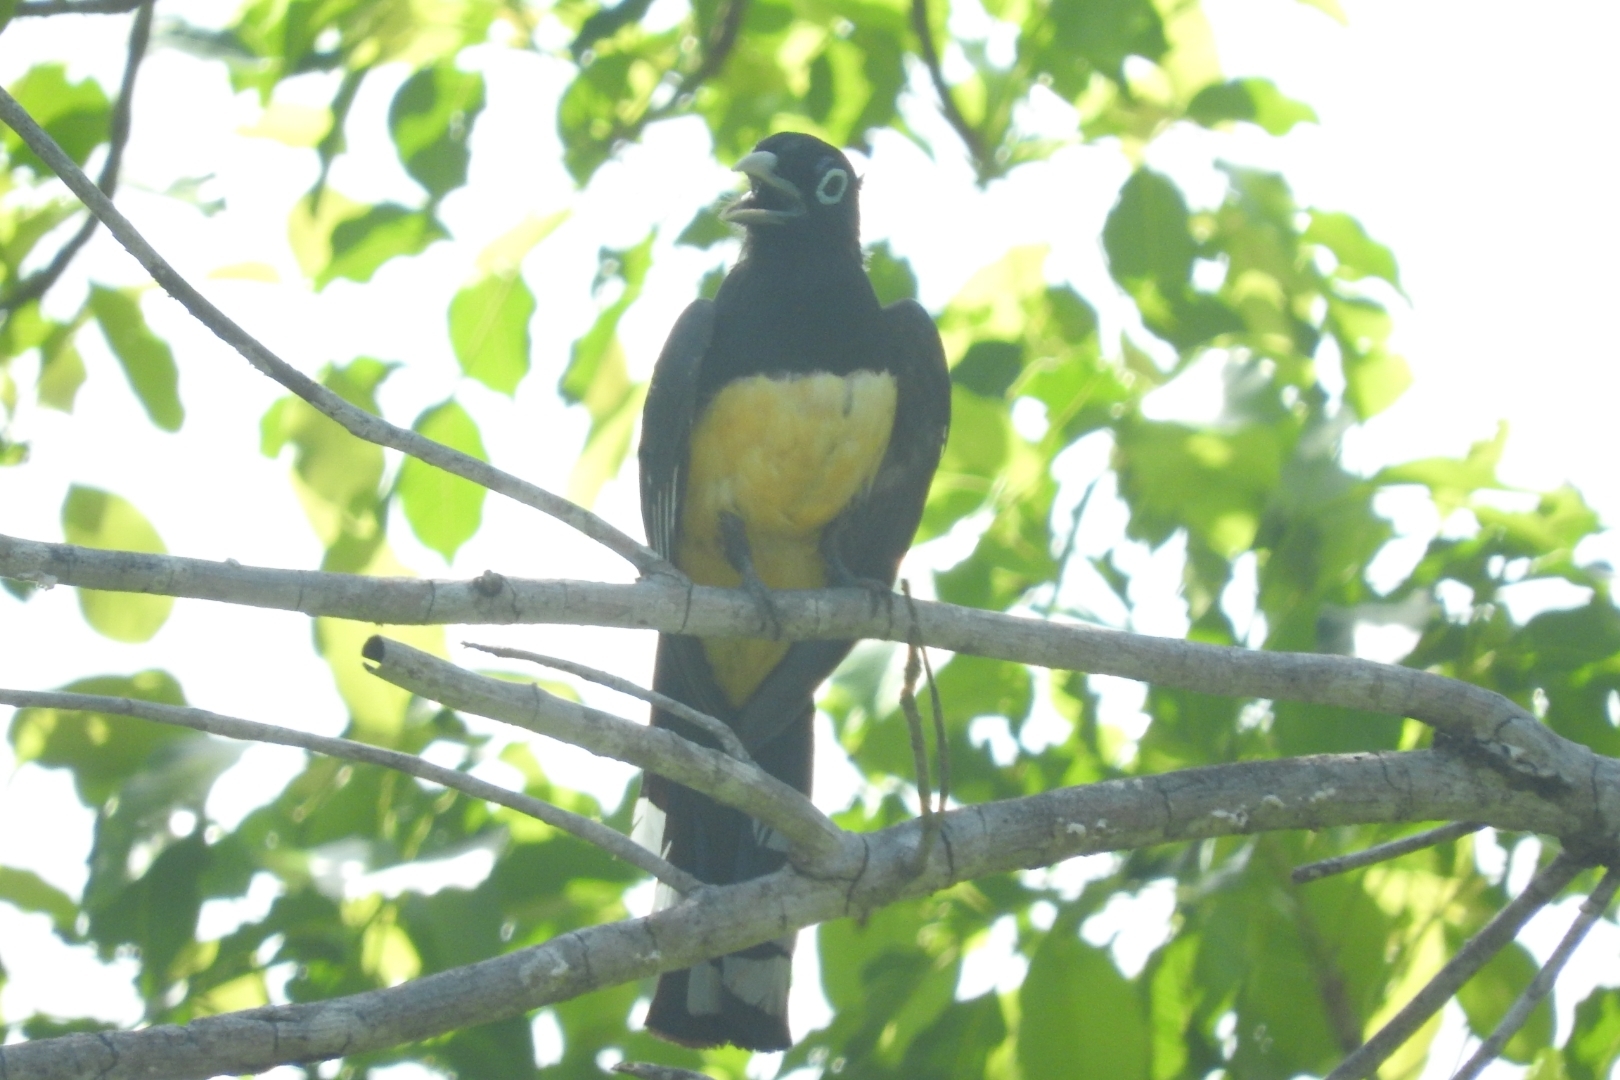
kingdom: Animalia
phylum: Chordata
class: Aves
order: Trogoniformes
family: Trogonidae
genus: Trogon
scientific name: Trogon melanocephalus
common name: Black-headed trogon
